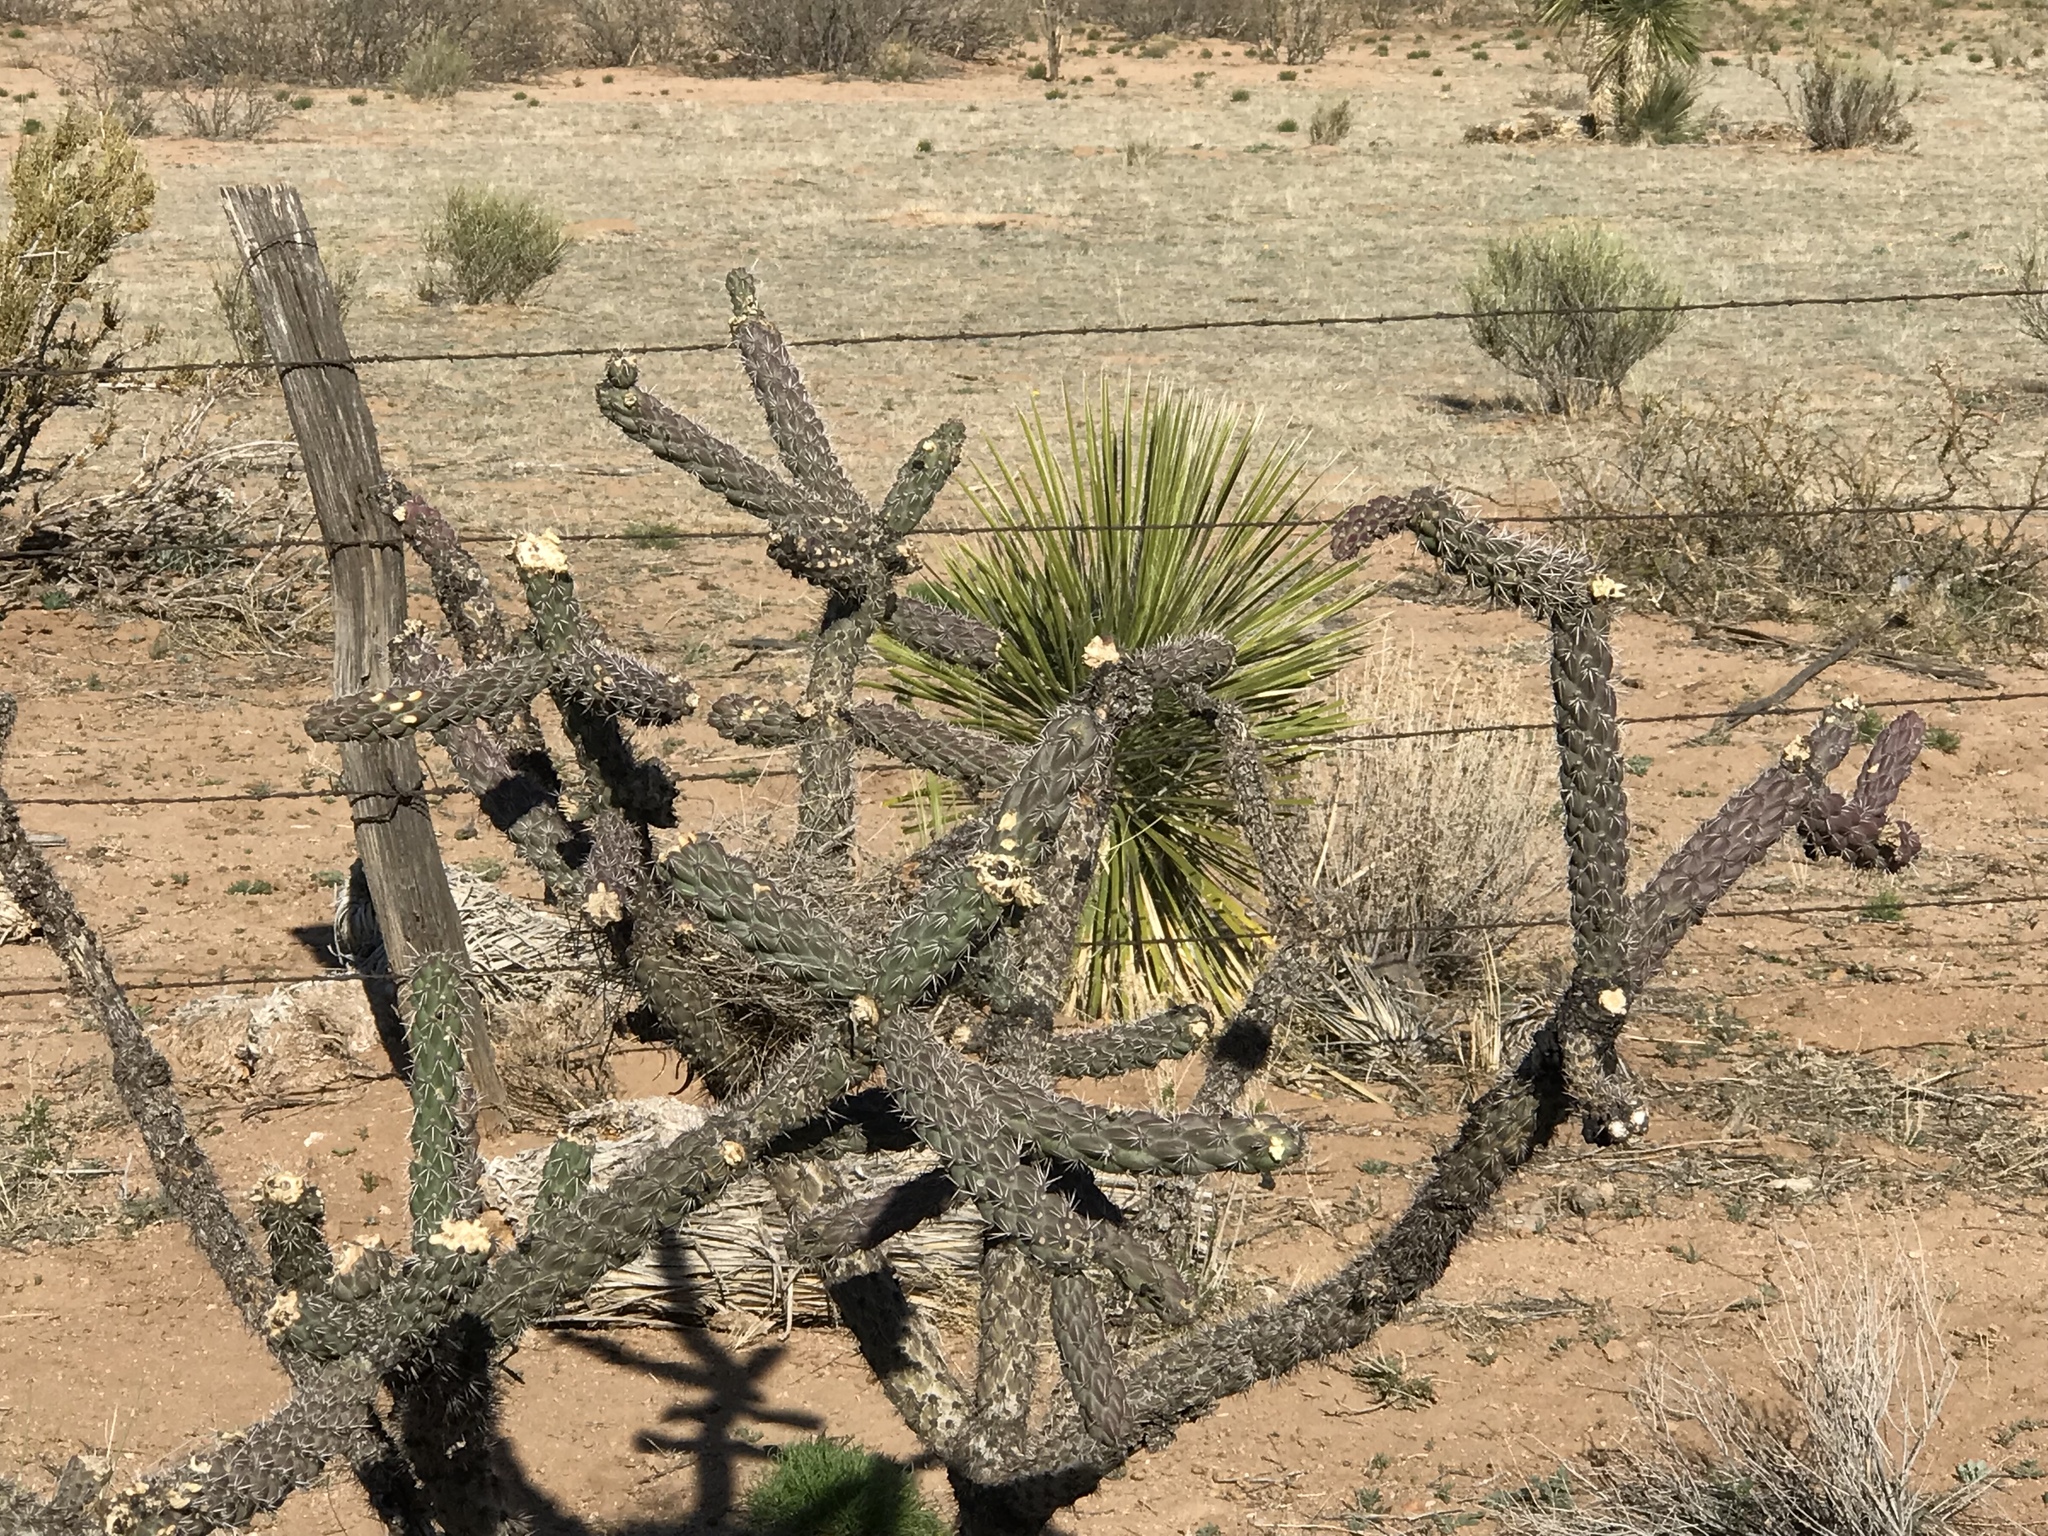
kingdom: Plantae
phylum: Tracheophyta
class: Magnoliopsida
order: Caryophyllales
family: Cactaceae
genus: Cylindropuntia
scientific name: Cylindropuntia imbricata
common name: Candelabrum cactus
